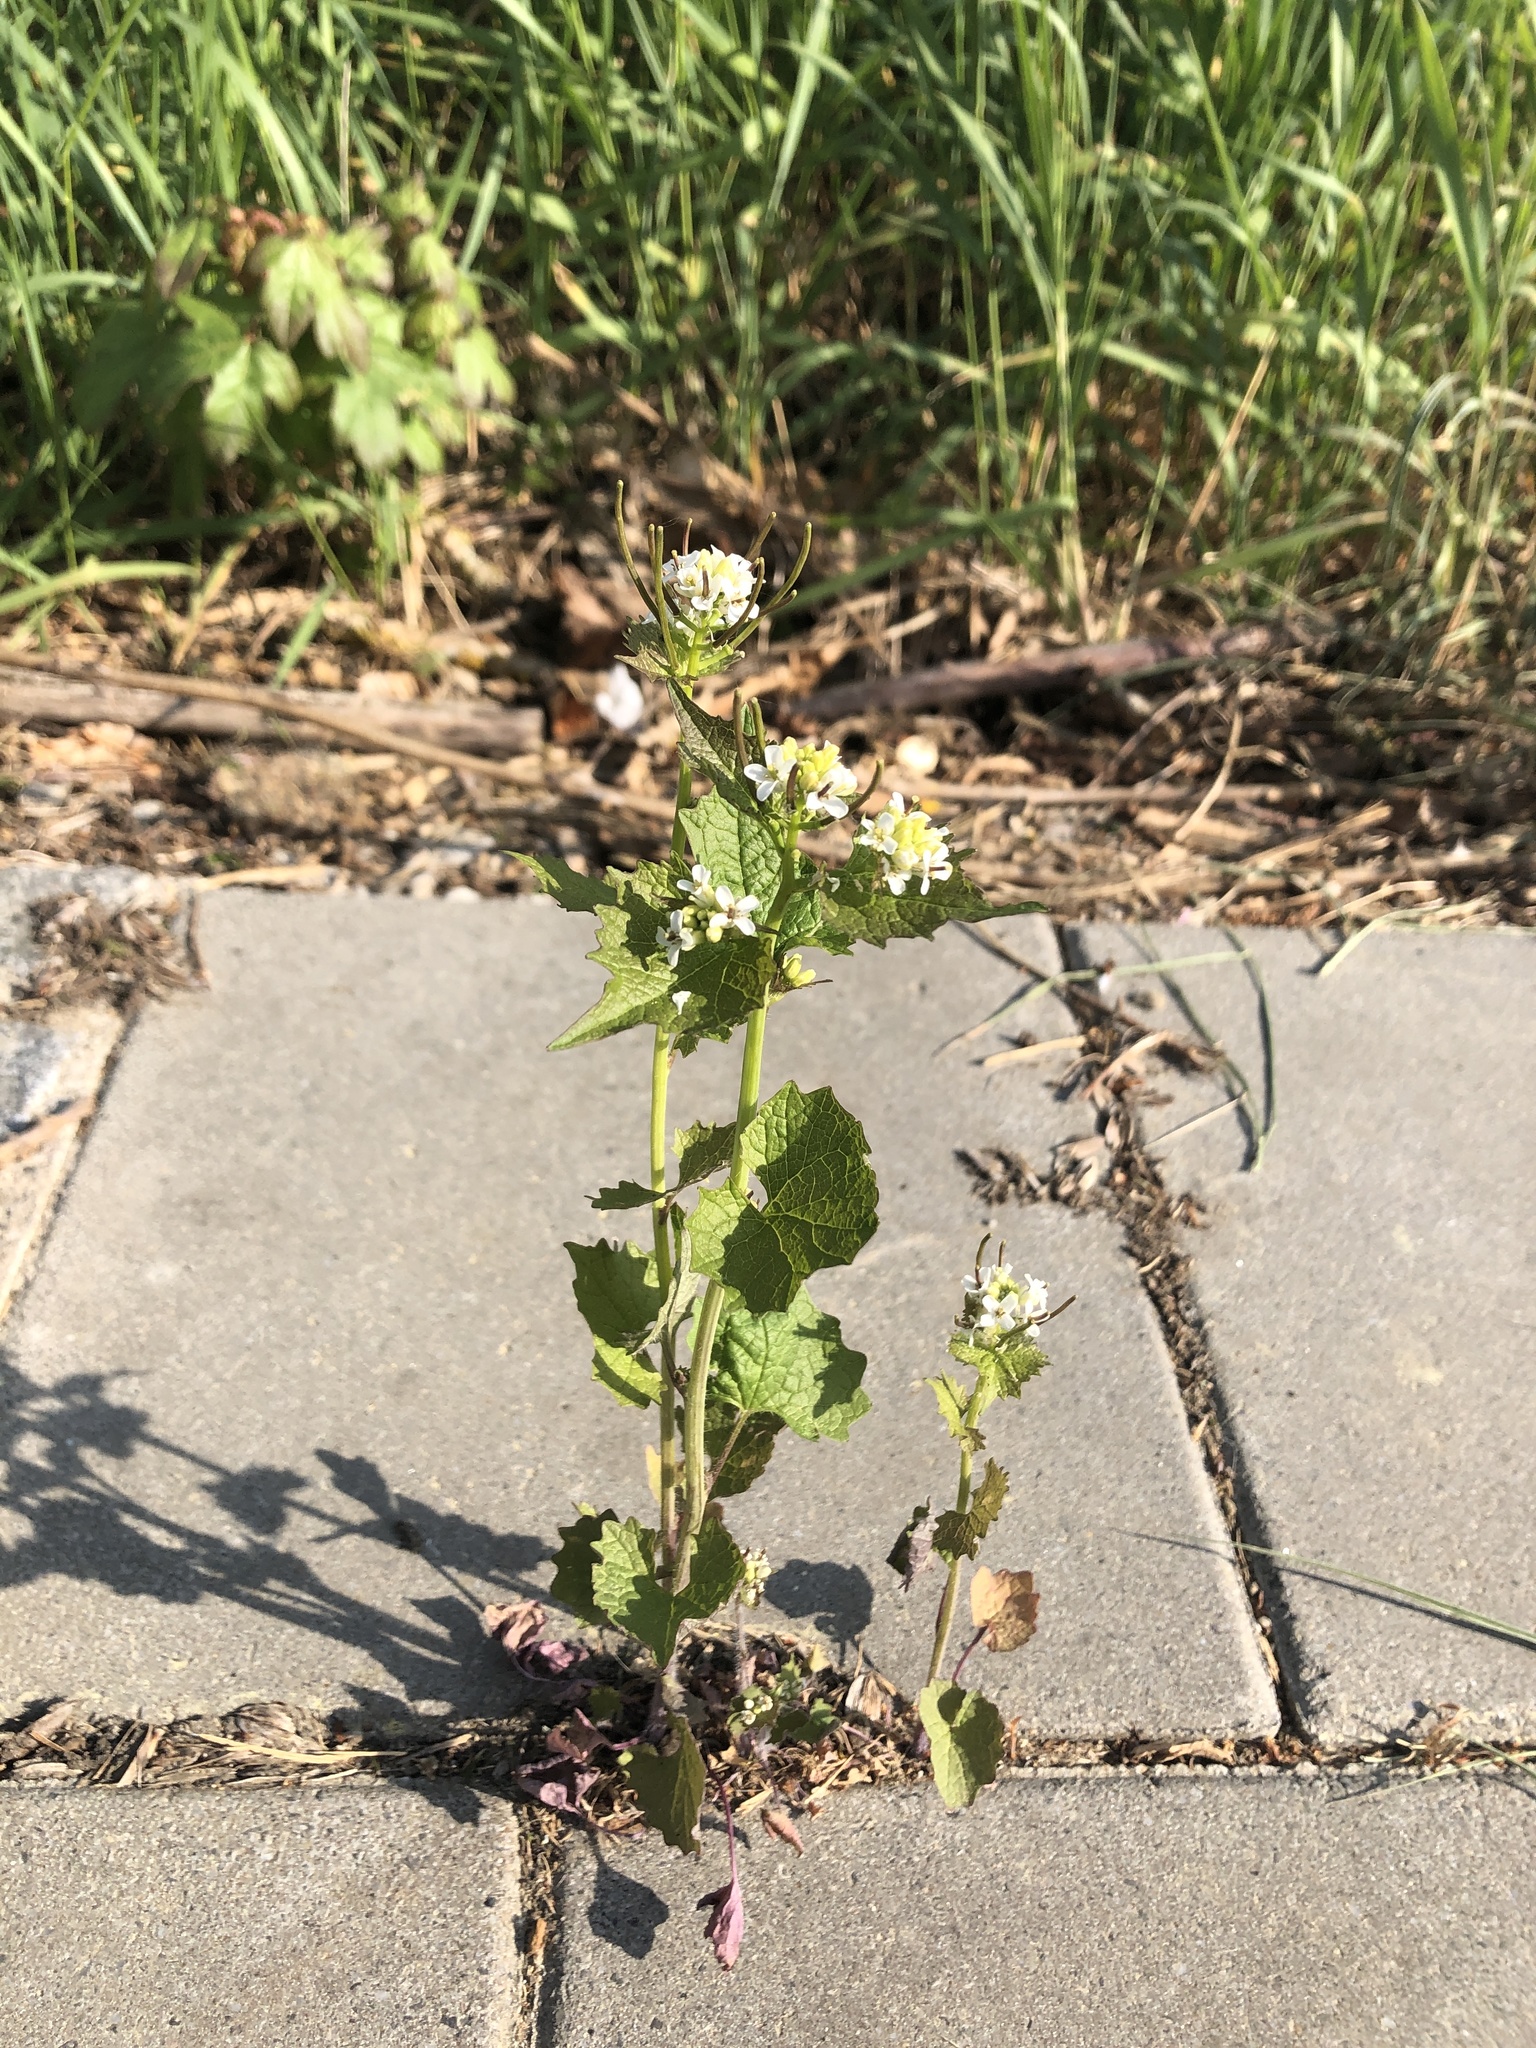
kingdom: Plantae
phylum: Tracheophyta
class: Magnoliopsida
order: Brassicales
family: Brassicaceae
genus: Alliaria
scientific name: Alliaria petiolata
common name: Garlic mustard
